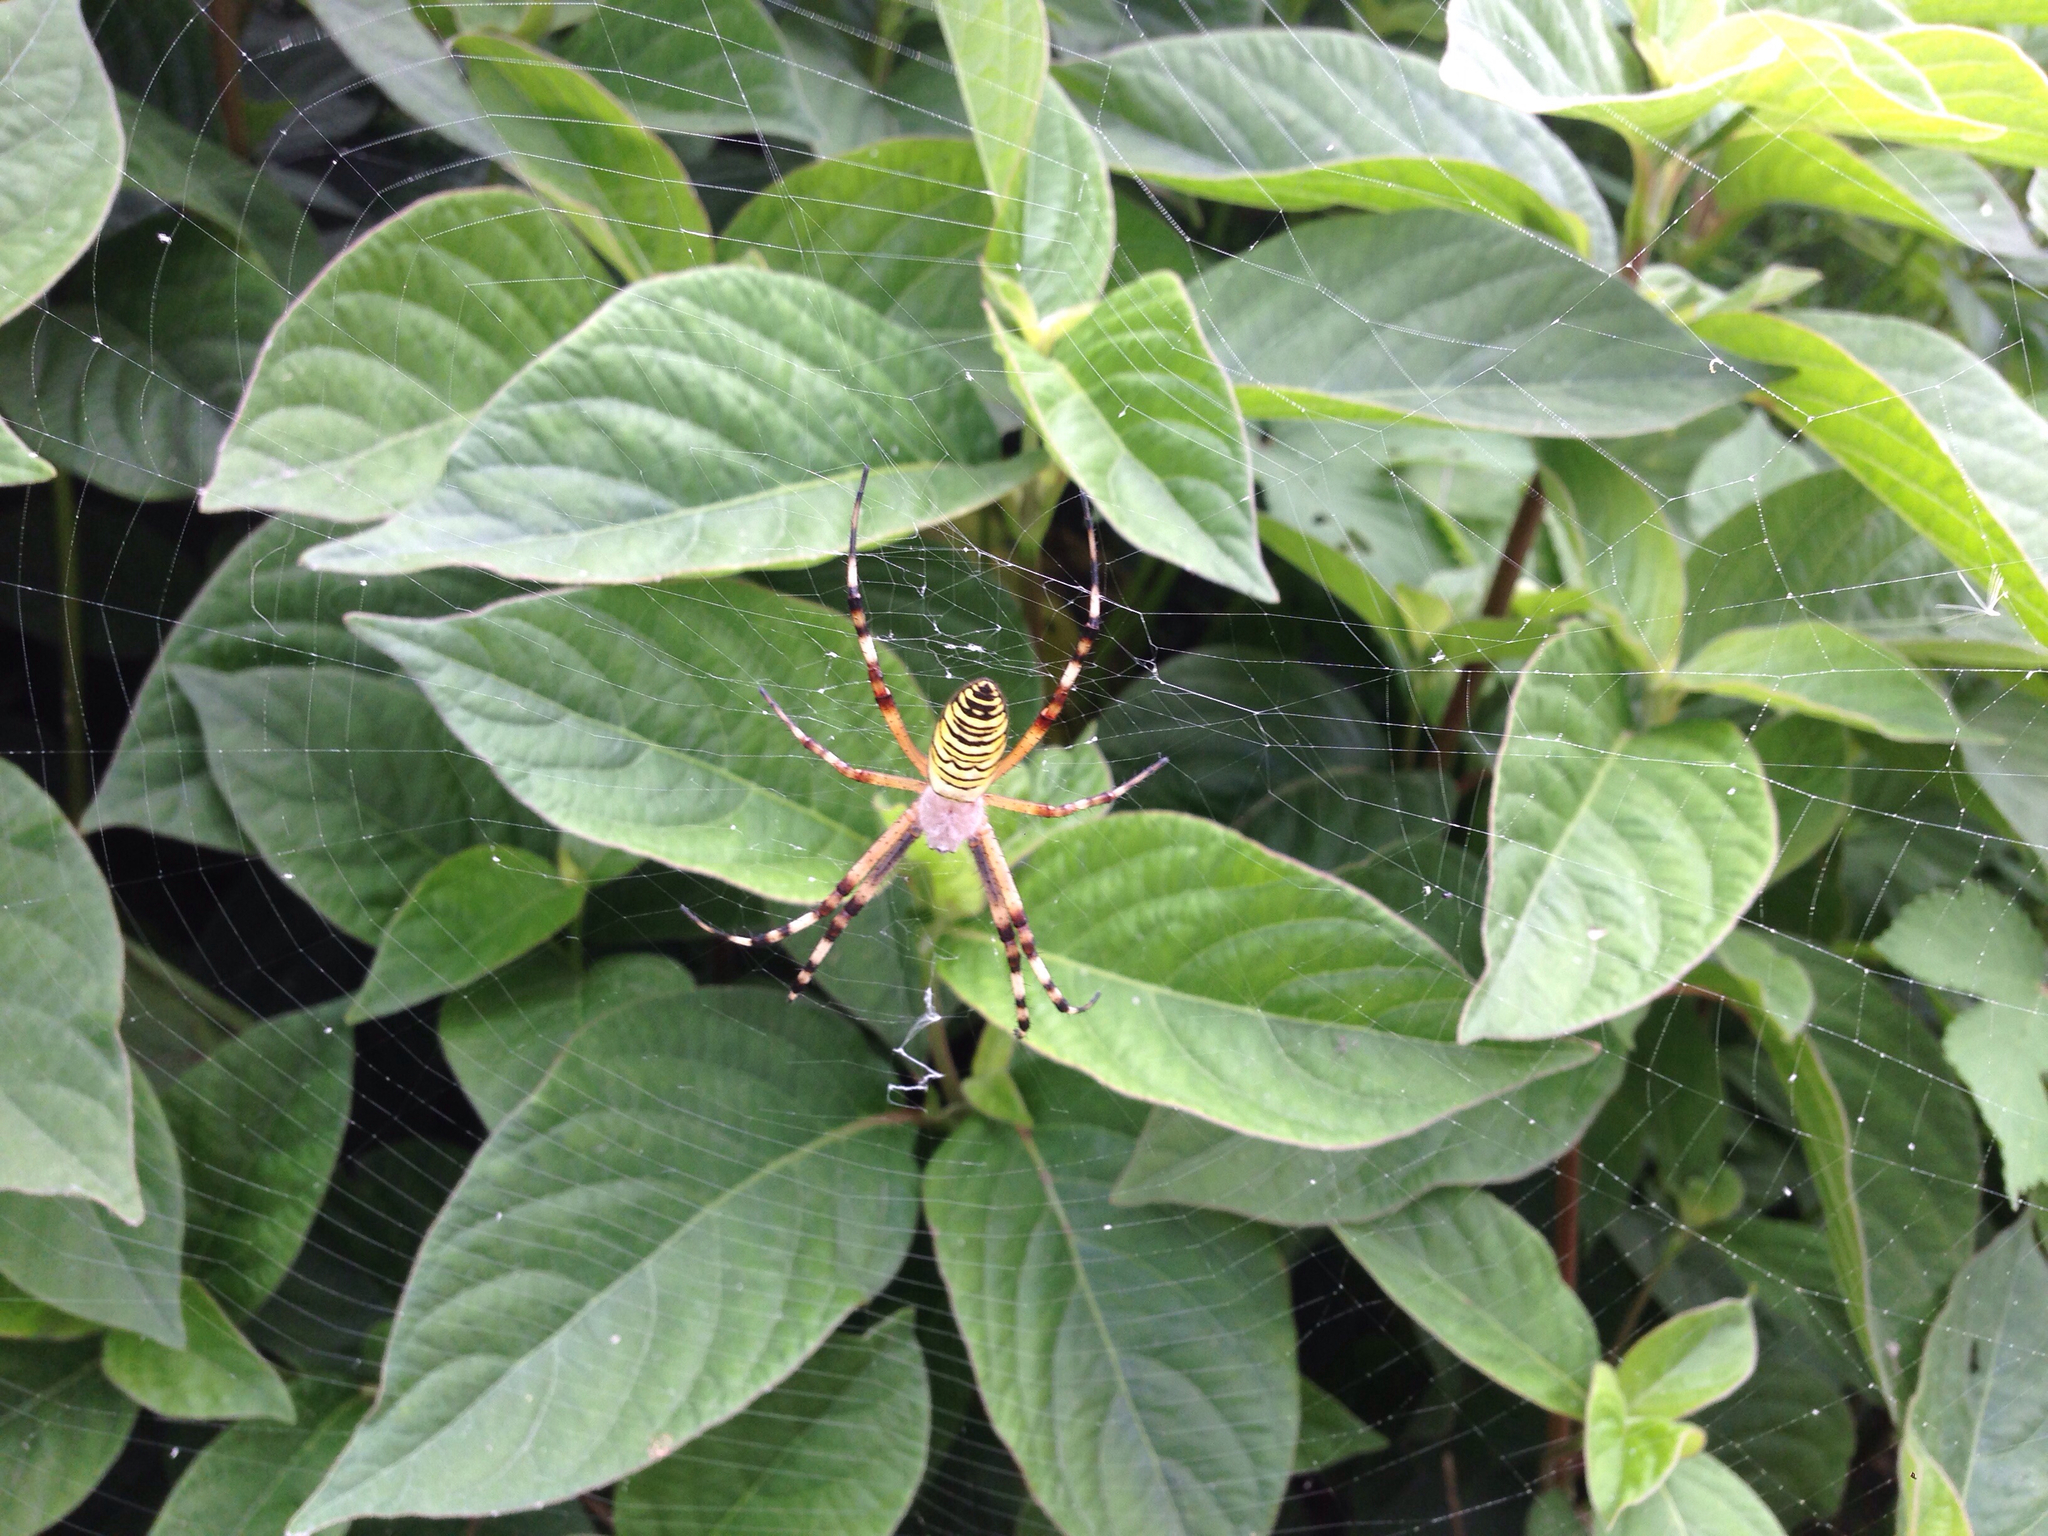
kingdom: Animalia
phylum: Arthropoda
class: Arachnida
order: Araneae
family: Araneidae
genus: Argiope
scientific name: Argiope bruennichi
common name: Wasp spider
